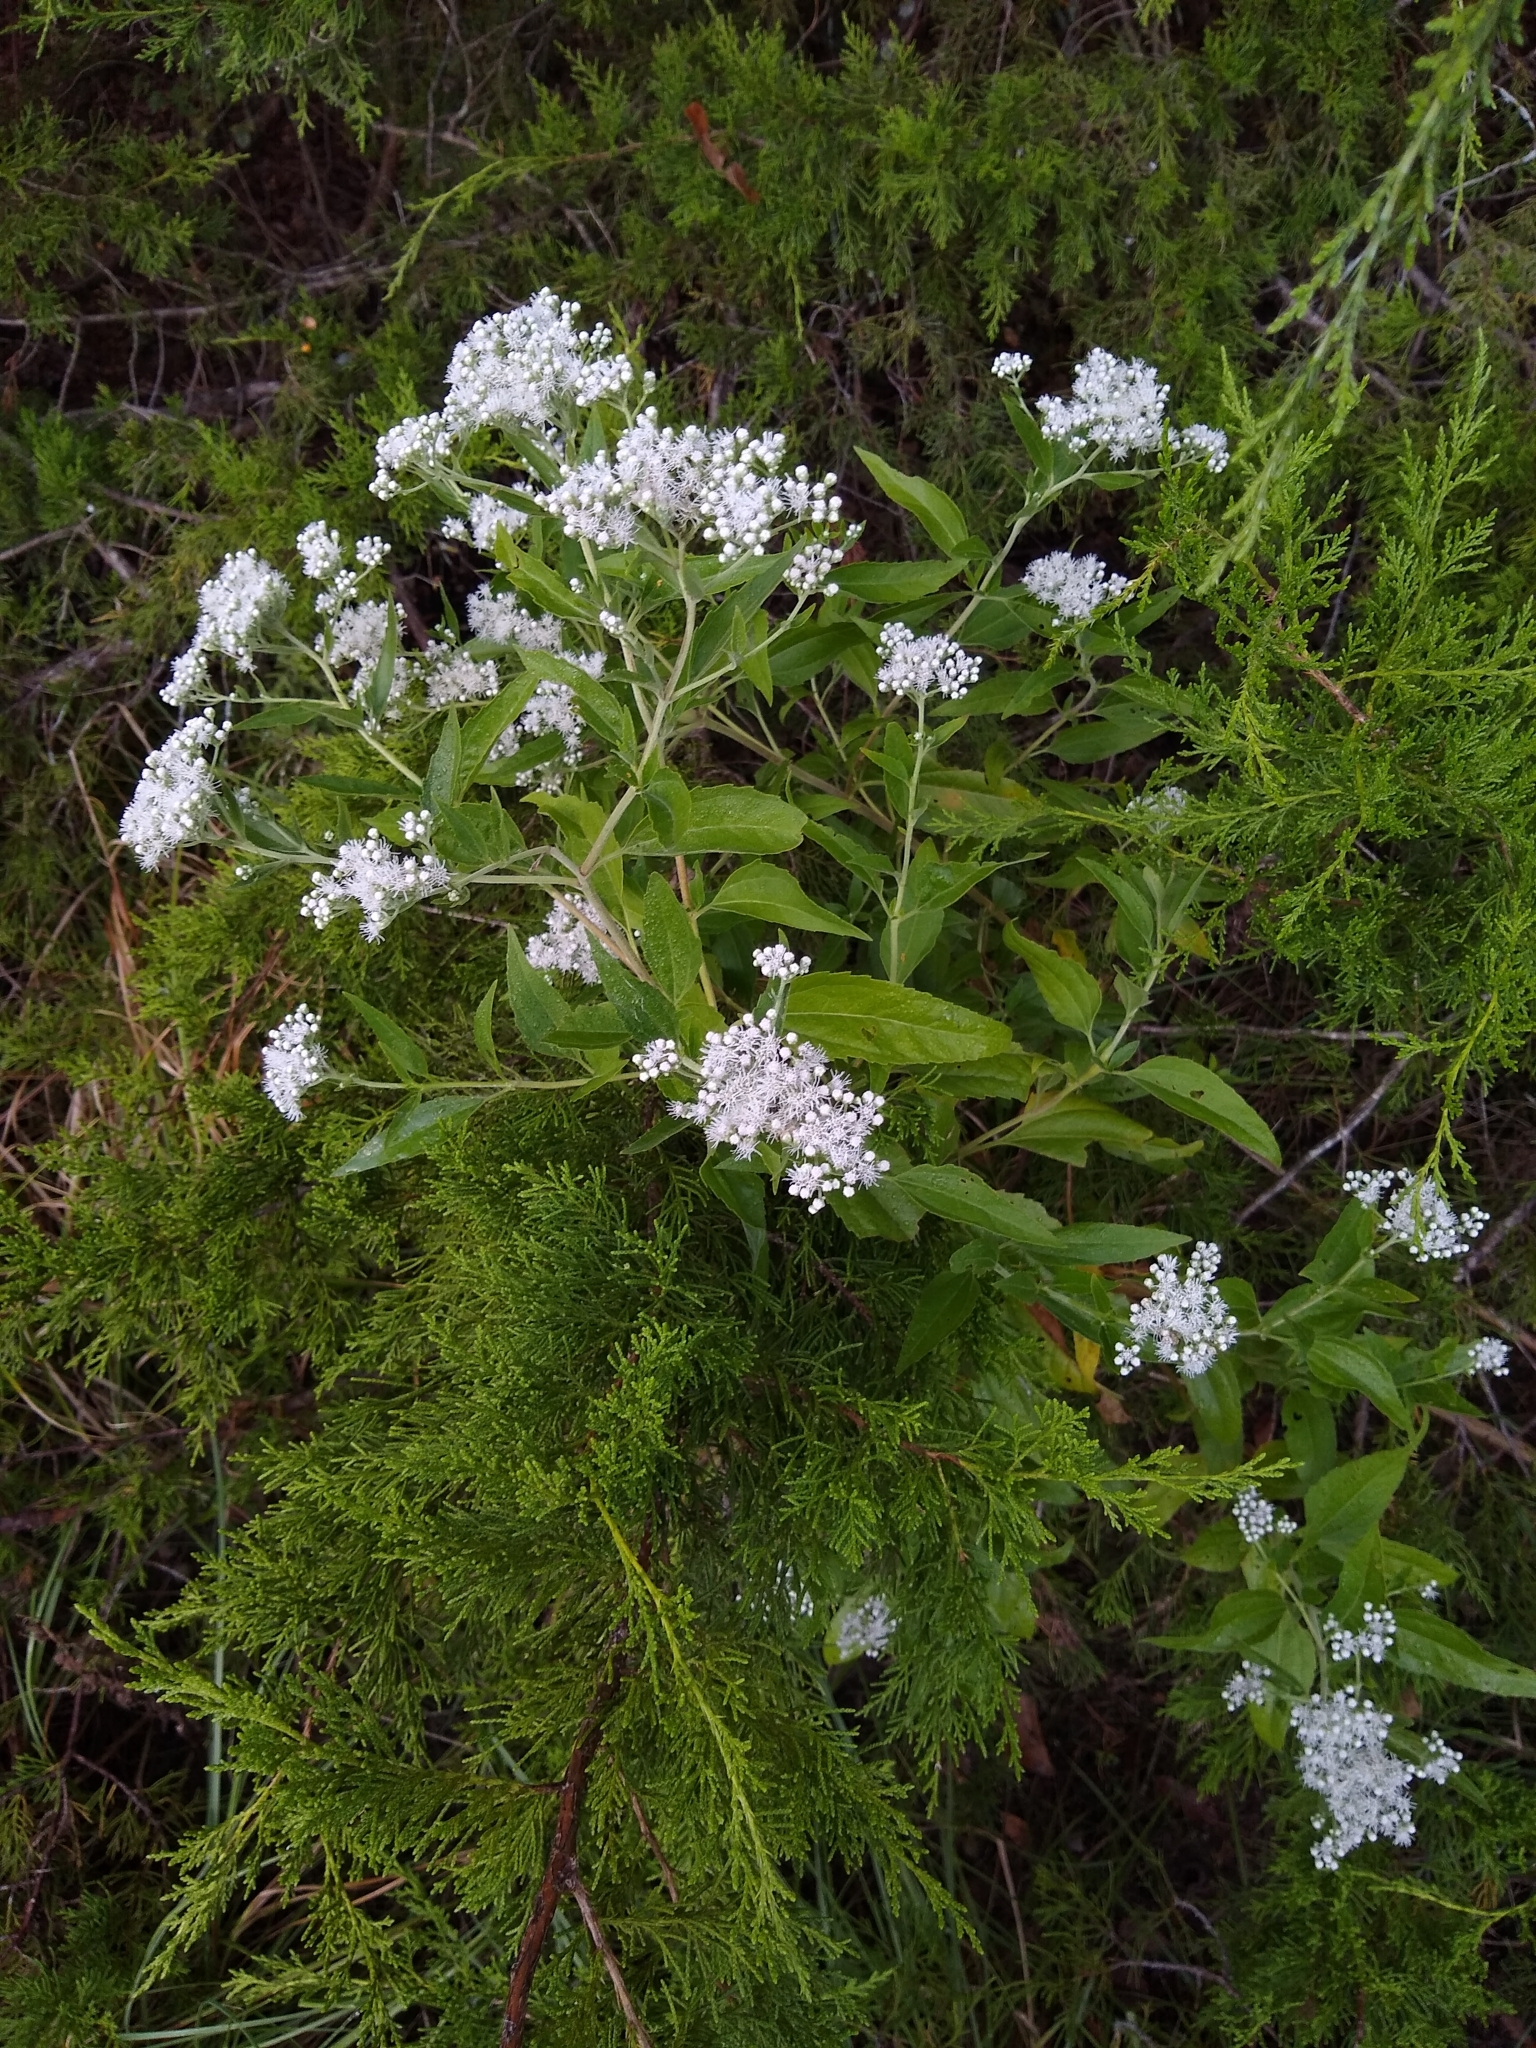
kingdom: Plantae
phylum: Tracheophyta
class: Magnoliopsida
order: Asterales
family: Asteraceae
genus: Eupatorium
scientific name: Eupatorium serotinum
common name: Late boneset
